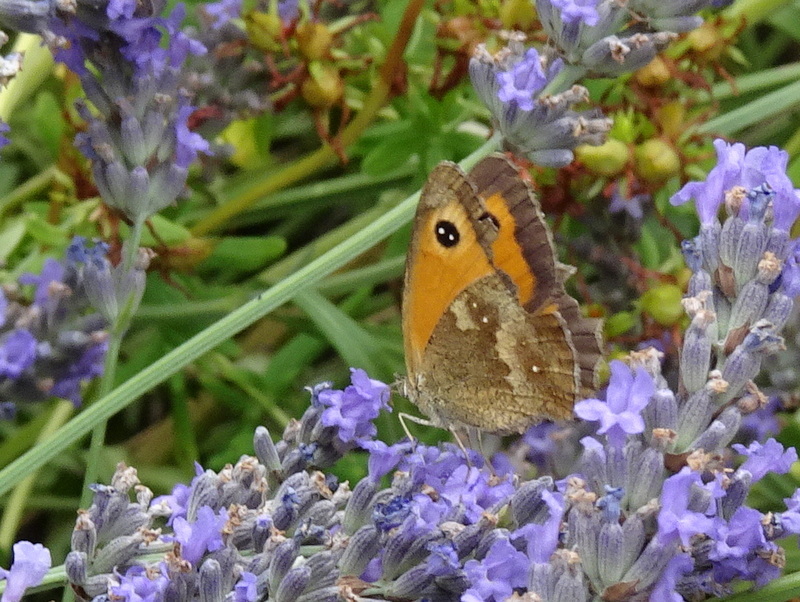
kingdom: Animalia
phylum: Arthropoda
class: Insecta
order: Lepidoptera
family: Nymphalidae
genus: Pyronia
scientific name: Pyronia tithonus
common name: Gatekeeper
